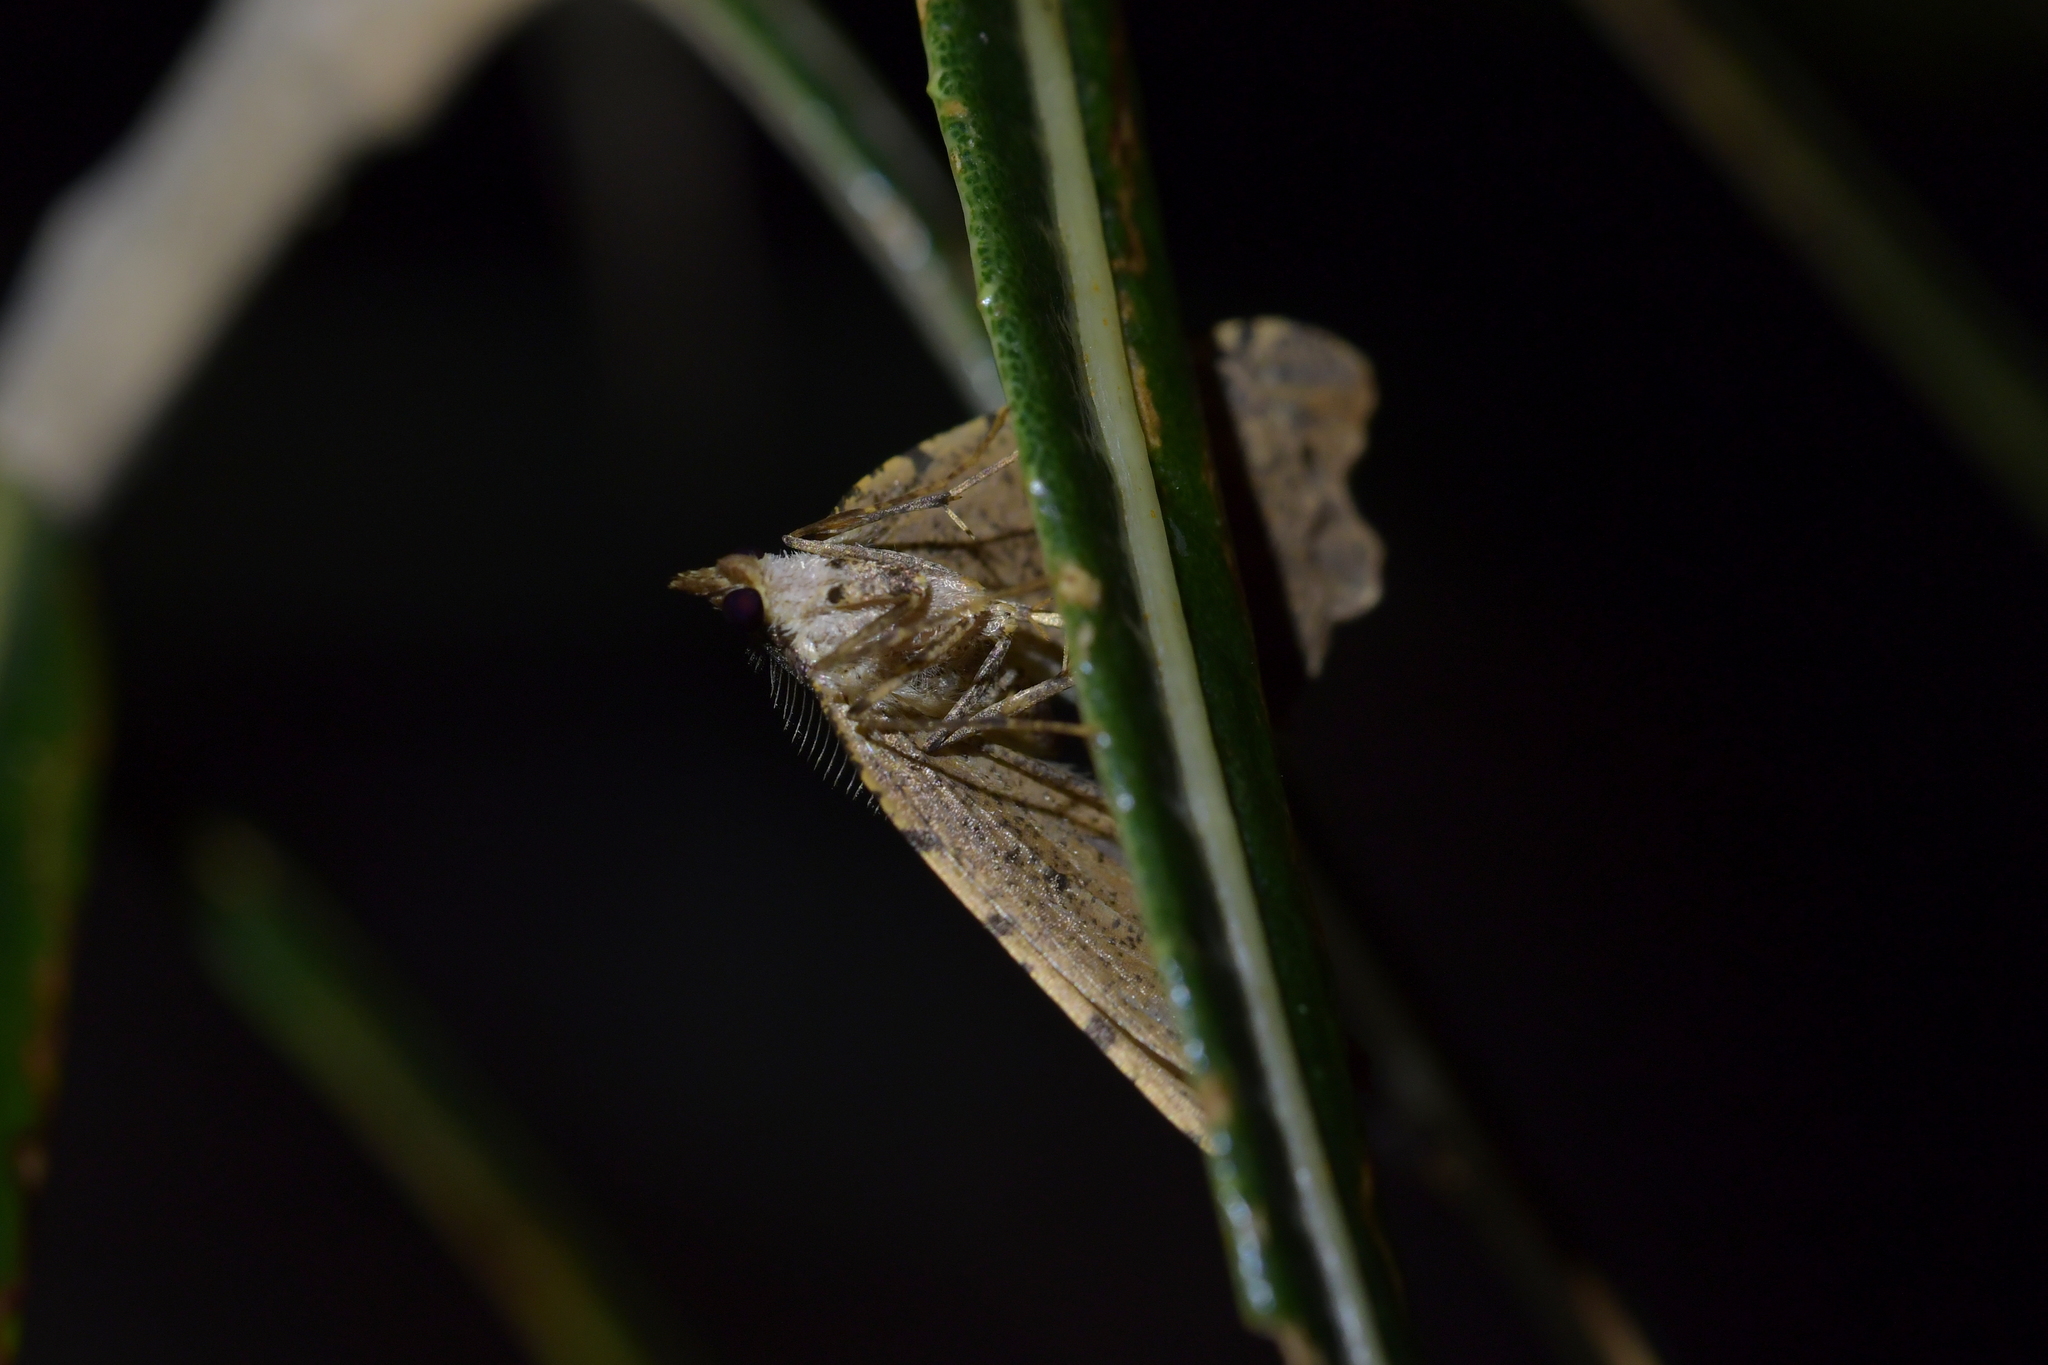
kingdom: Animalia
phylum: Arthropoda
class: Insecta
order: Lepidoptera
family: Geometridae
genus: Chalastra
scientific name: Chalastra pellurgata
